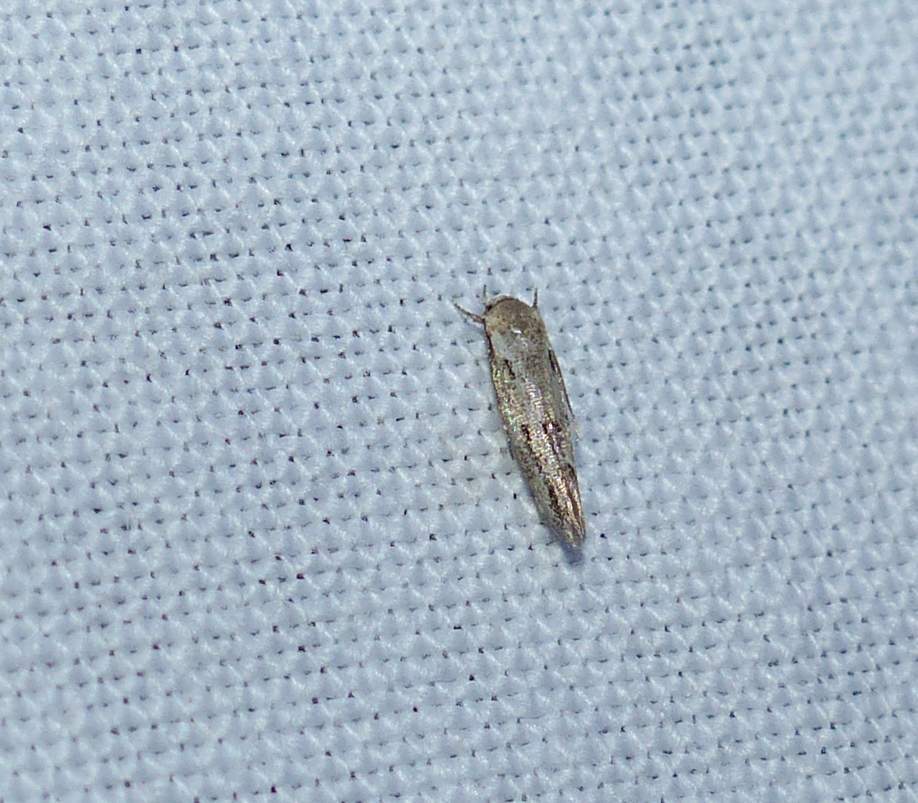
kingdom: Animalia
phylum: Arthropoda
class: Insecta
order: Lepidoptera
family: Momphidae
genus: Mompha
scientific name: Mompha brevivittella
